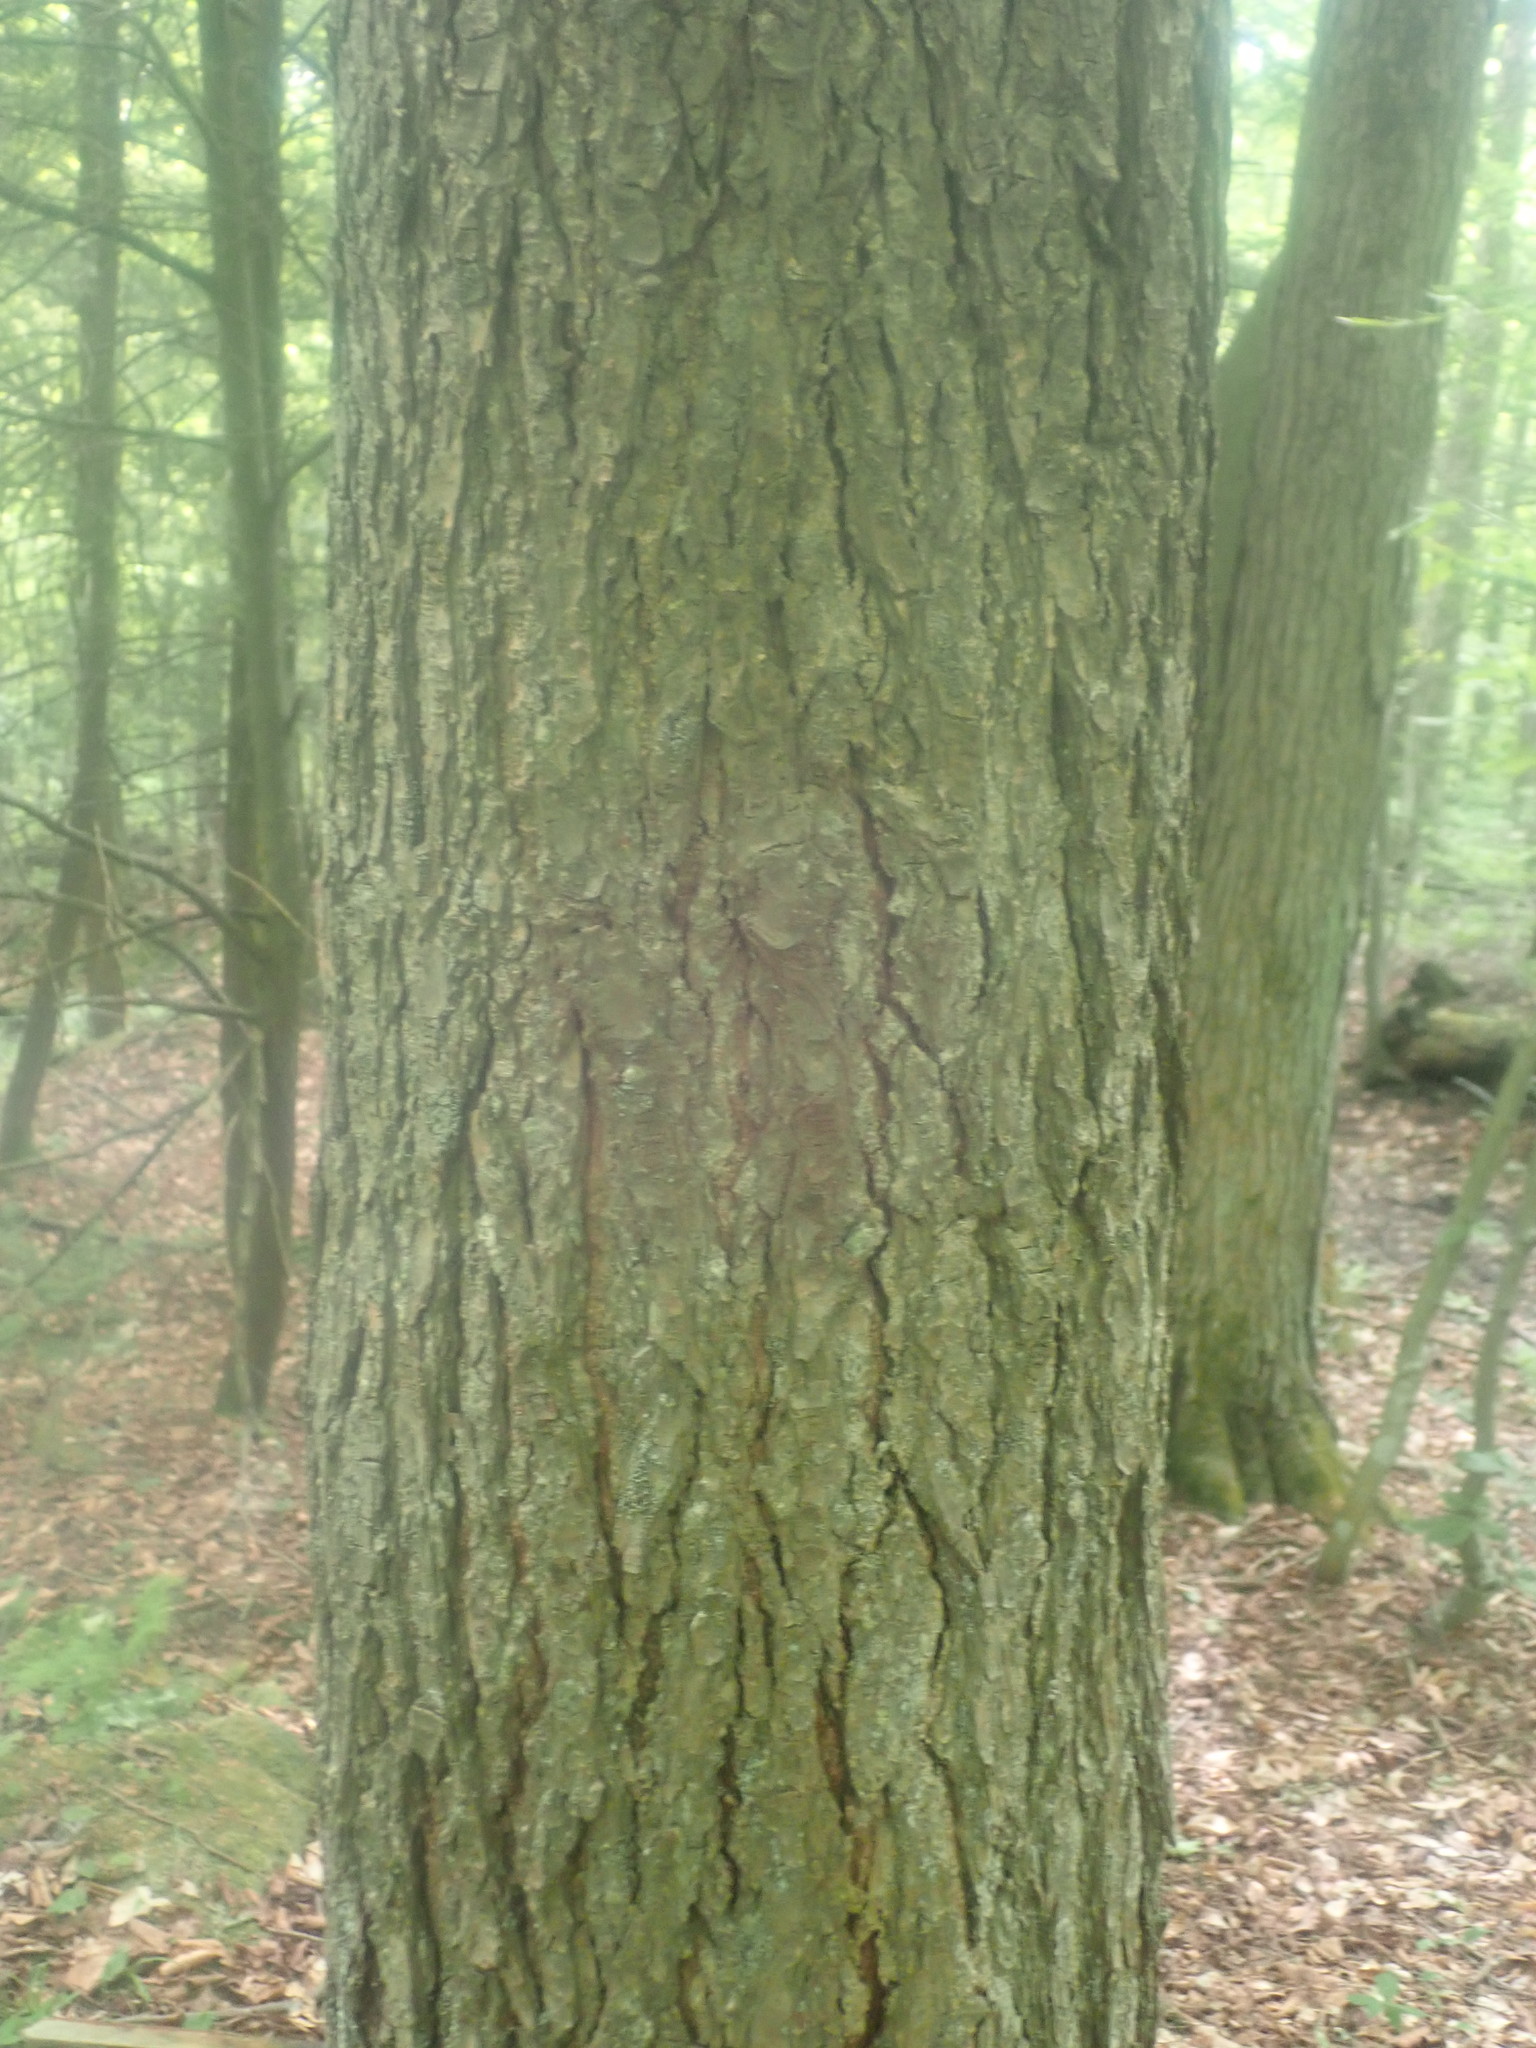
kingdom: Plantae
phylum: Tracheophyta
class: Pinopsida
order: Pinales
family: Pinaceae
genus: Tsuga
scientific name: Tsuga canadensis
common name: Eastern hemlock
